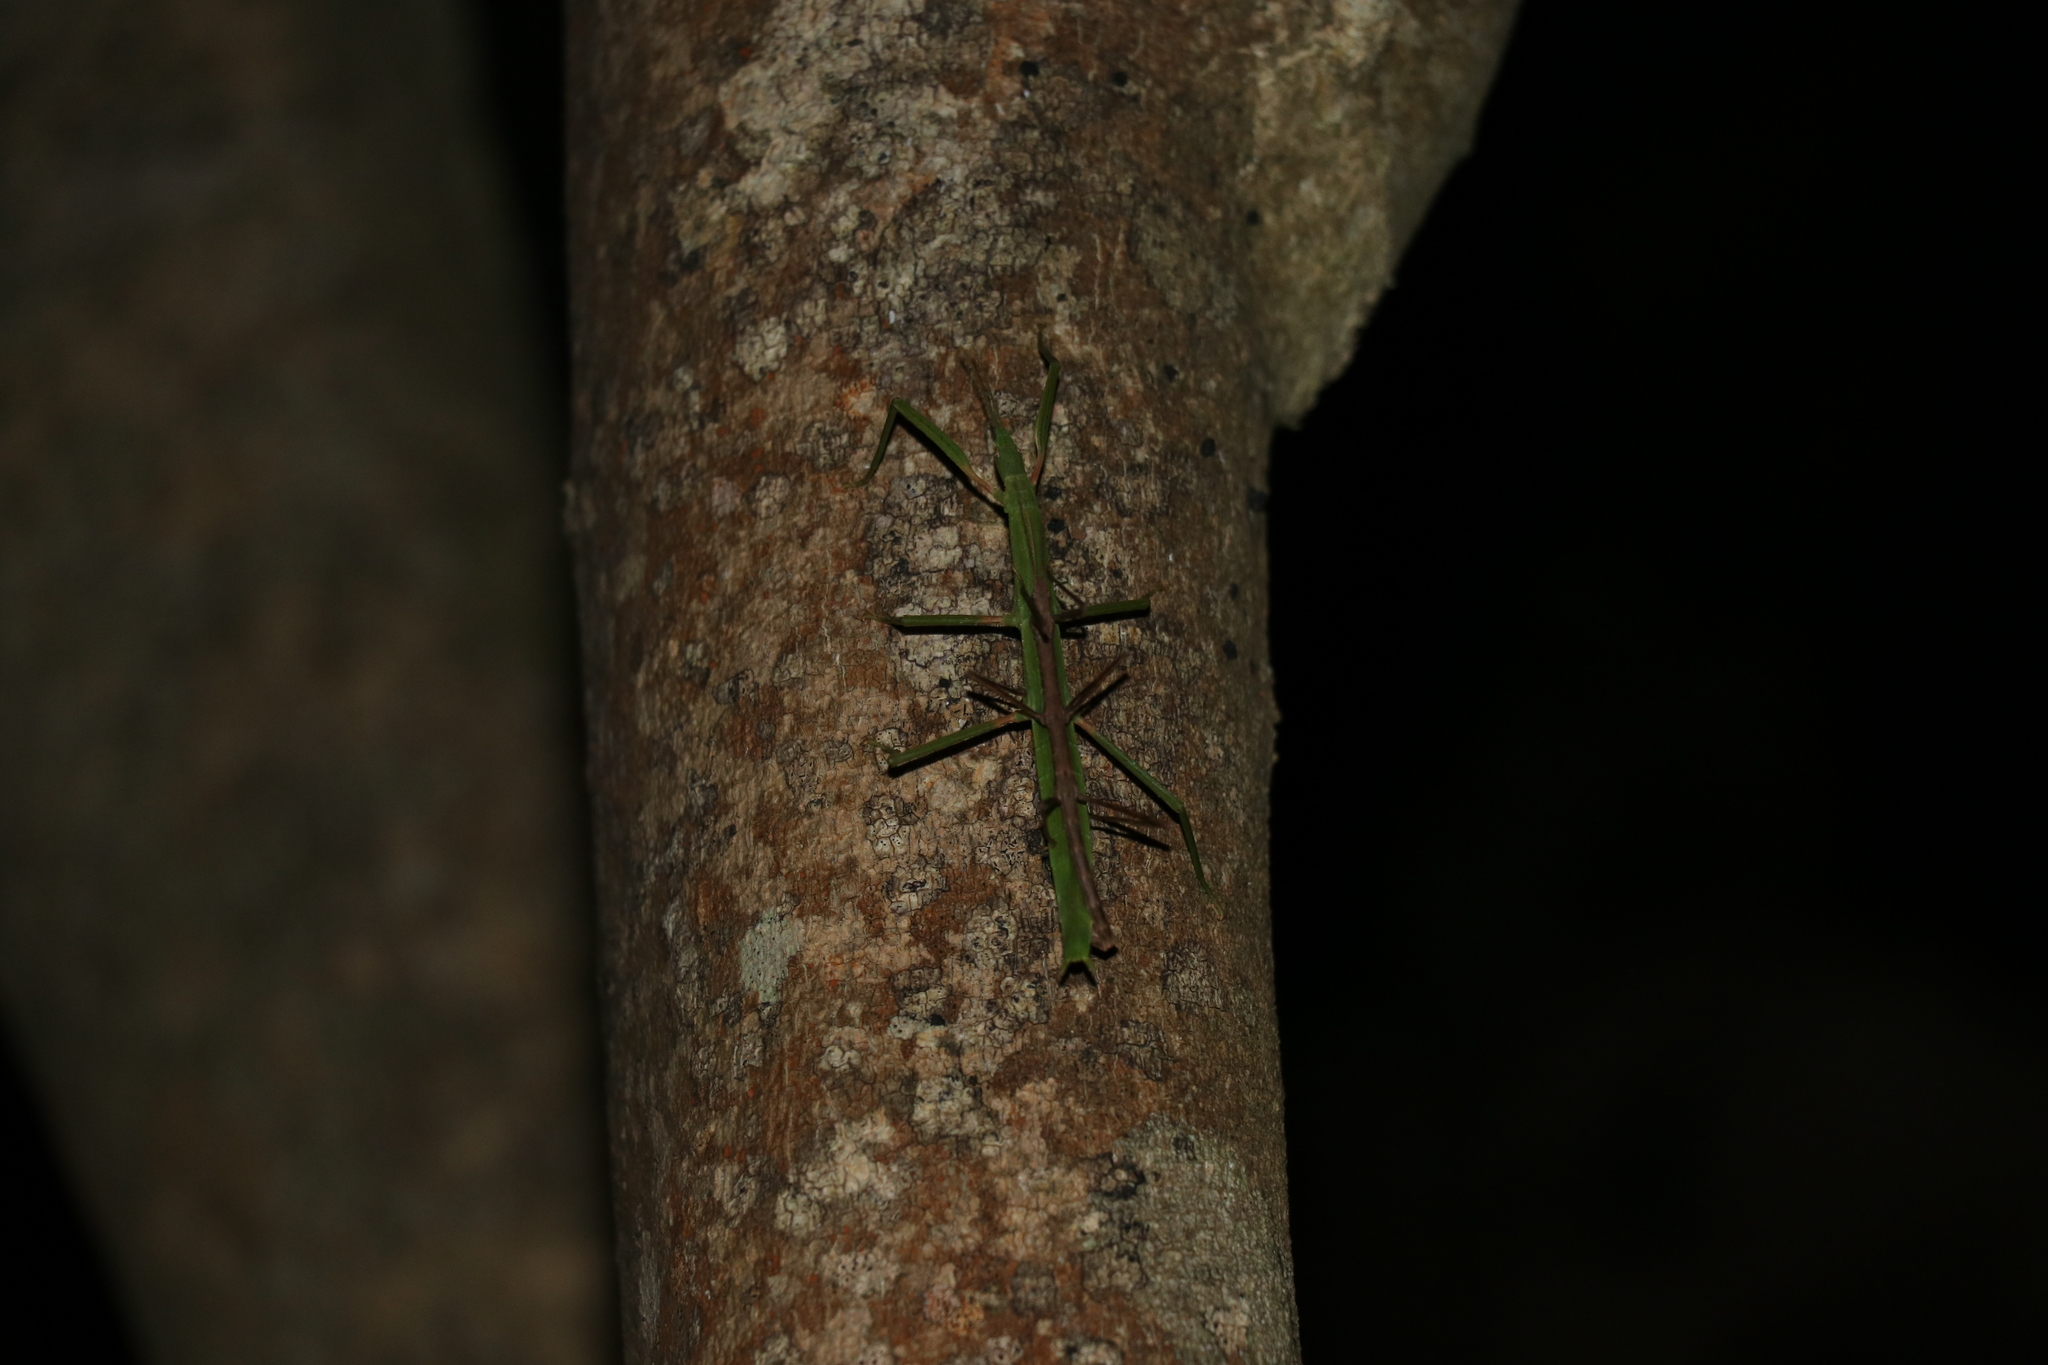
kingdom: Animalia
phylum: Arthropoda
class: Insecta
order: Phasmida
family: Phasmatidae
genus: Tectarchus
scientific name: Tectarchus huttoni
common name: The common ridge-backed stick insect
